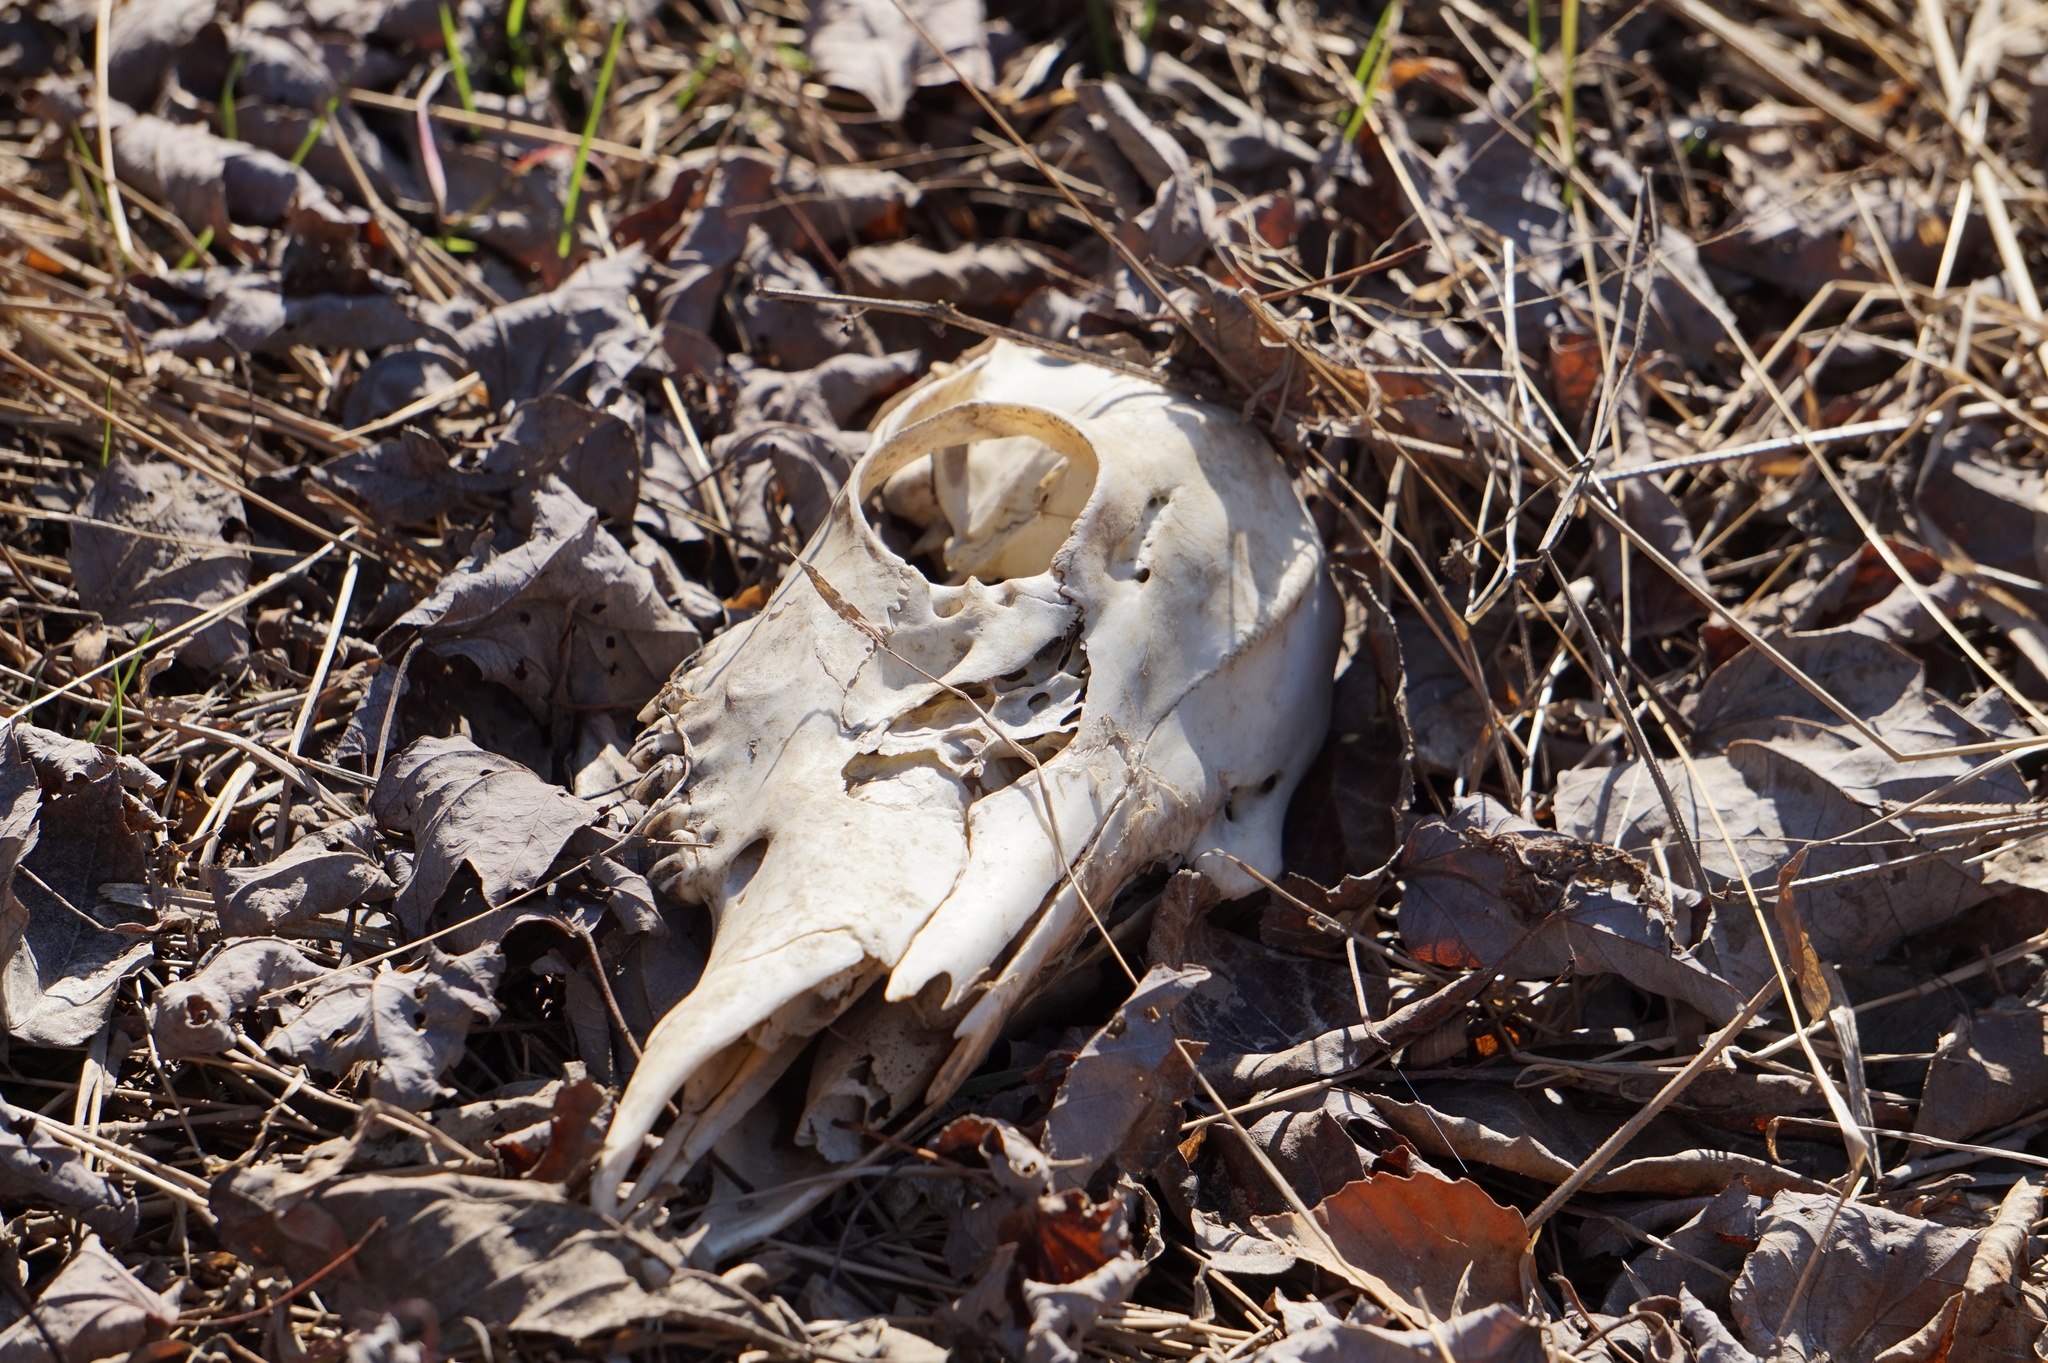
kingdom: Animalia
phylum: Chordata
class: Mammalia
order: Artiodactyla
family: Cervidae
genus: Odocoileus
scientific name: Odocoileus virginianus
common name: White-tailed deer
